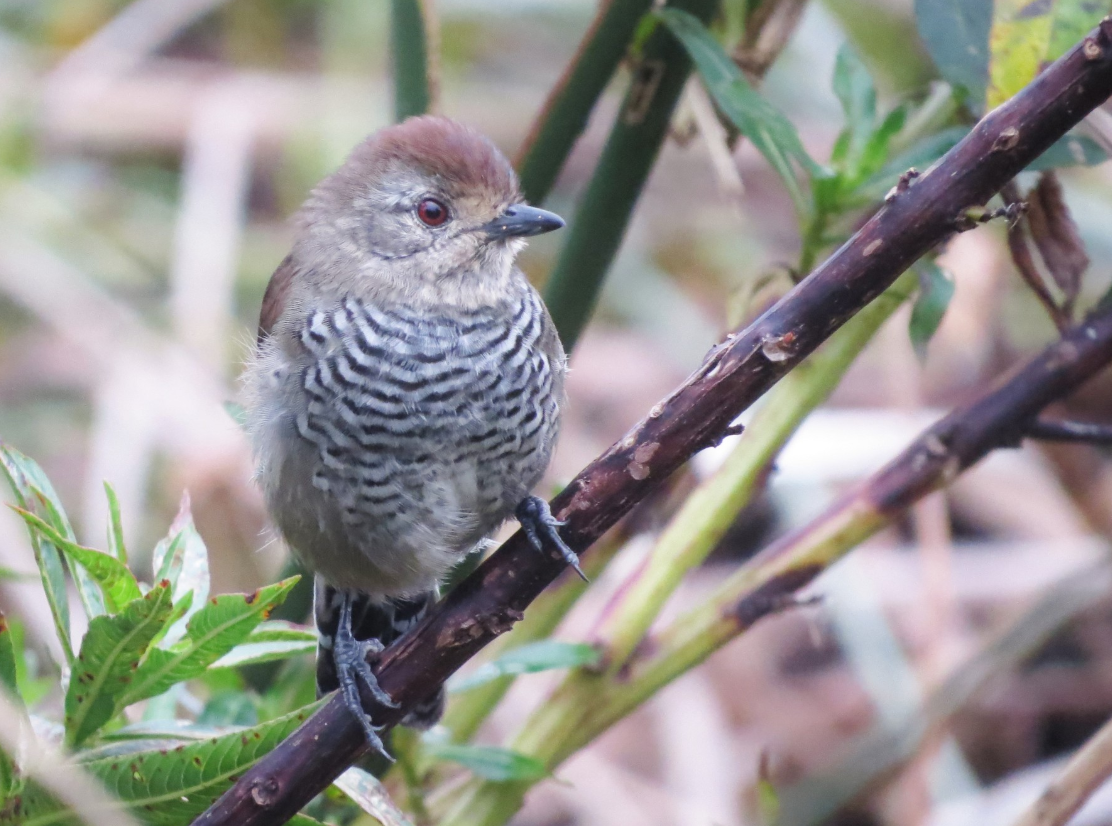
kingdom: Animalia
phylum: Chordata
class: Aves
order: Passeriformes
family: Thamnophilidae
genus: Thamnophilus
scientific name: Thamnophilus ruficapillus
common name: Rufous-capped antshrike
